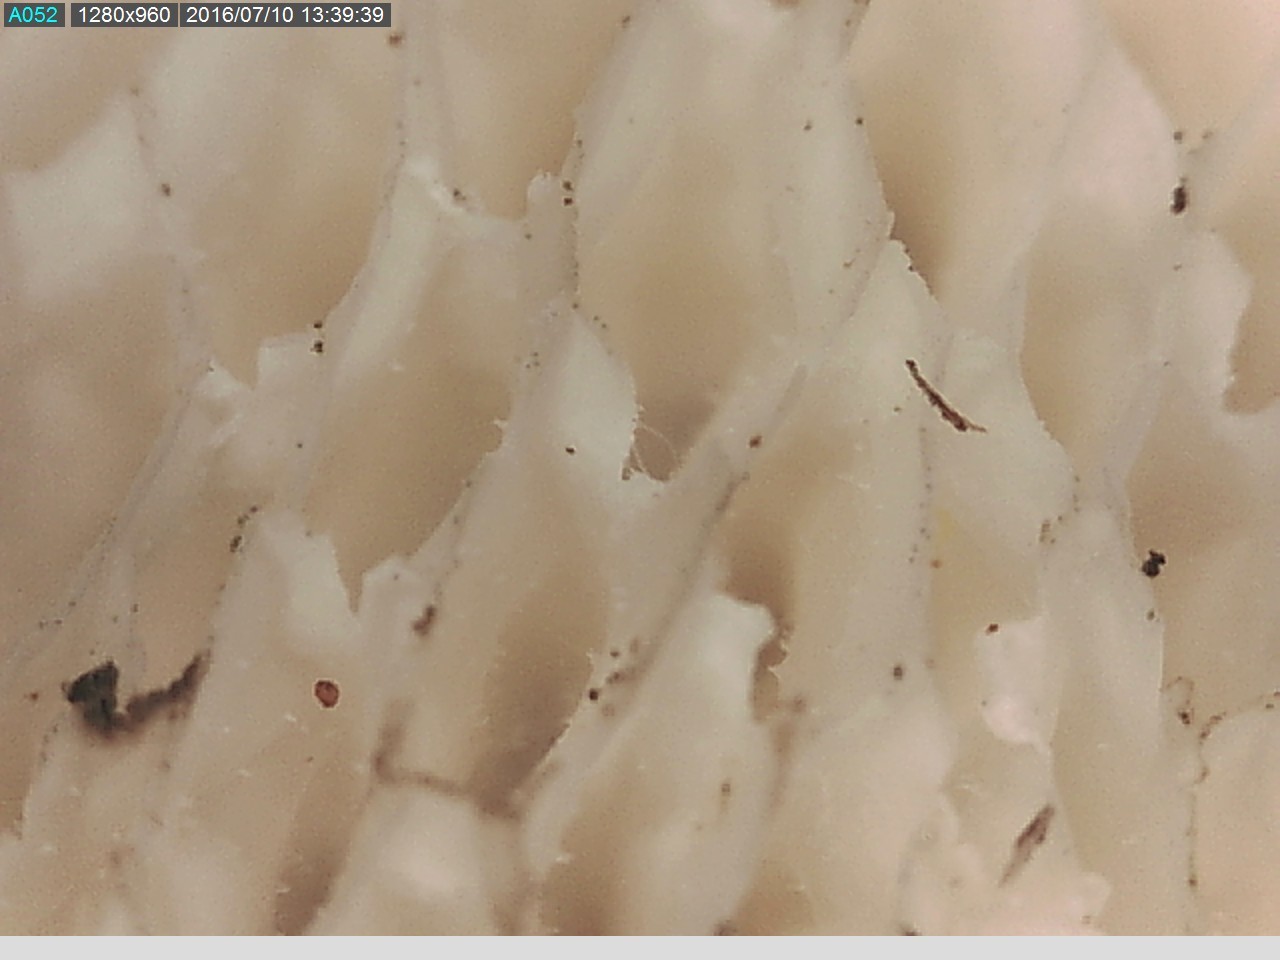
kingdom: Fungi
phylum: Basidiomycota
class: Agaricomycetes
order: Polyporales
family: Polyporaceae
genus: Lentinus
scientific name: Lentinus arcularius
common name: Spring polypore
